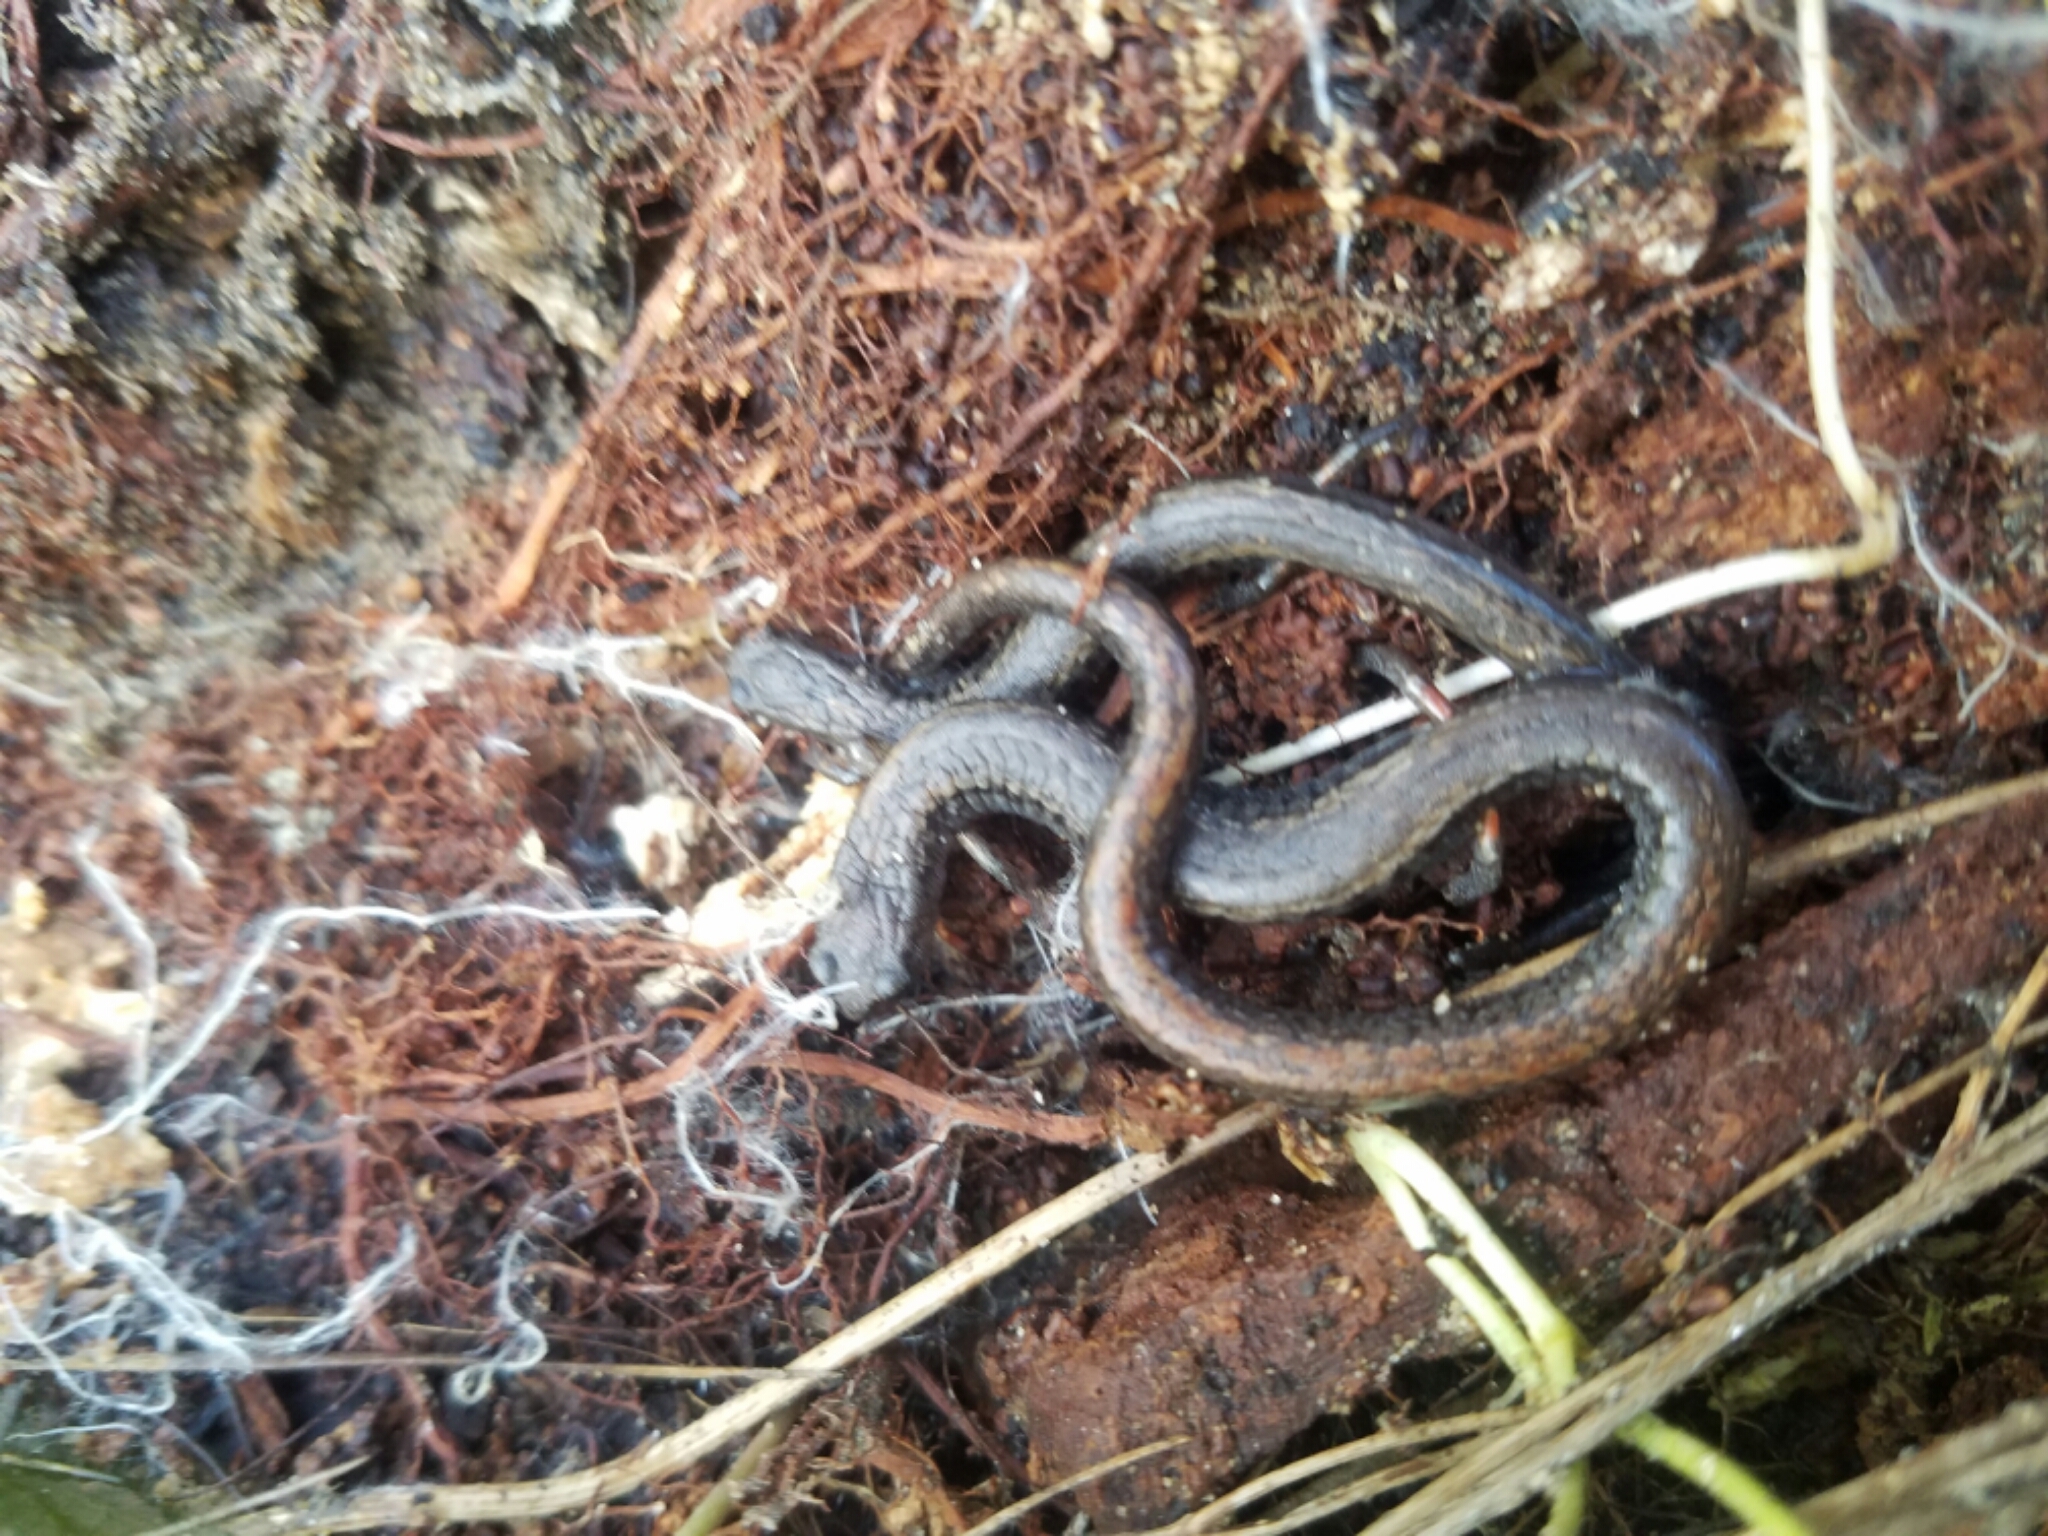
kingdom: Animalia
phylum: Chordata
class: Amphibia
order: Caudata
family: Plethodontidae
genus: Batrachoseps
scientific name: Batrachoseps attenuatus
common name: California slender salamander
